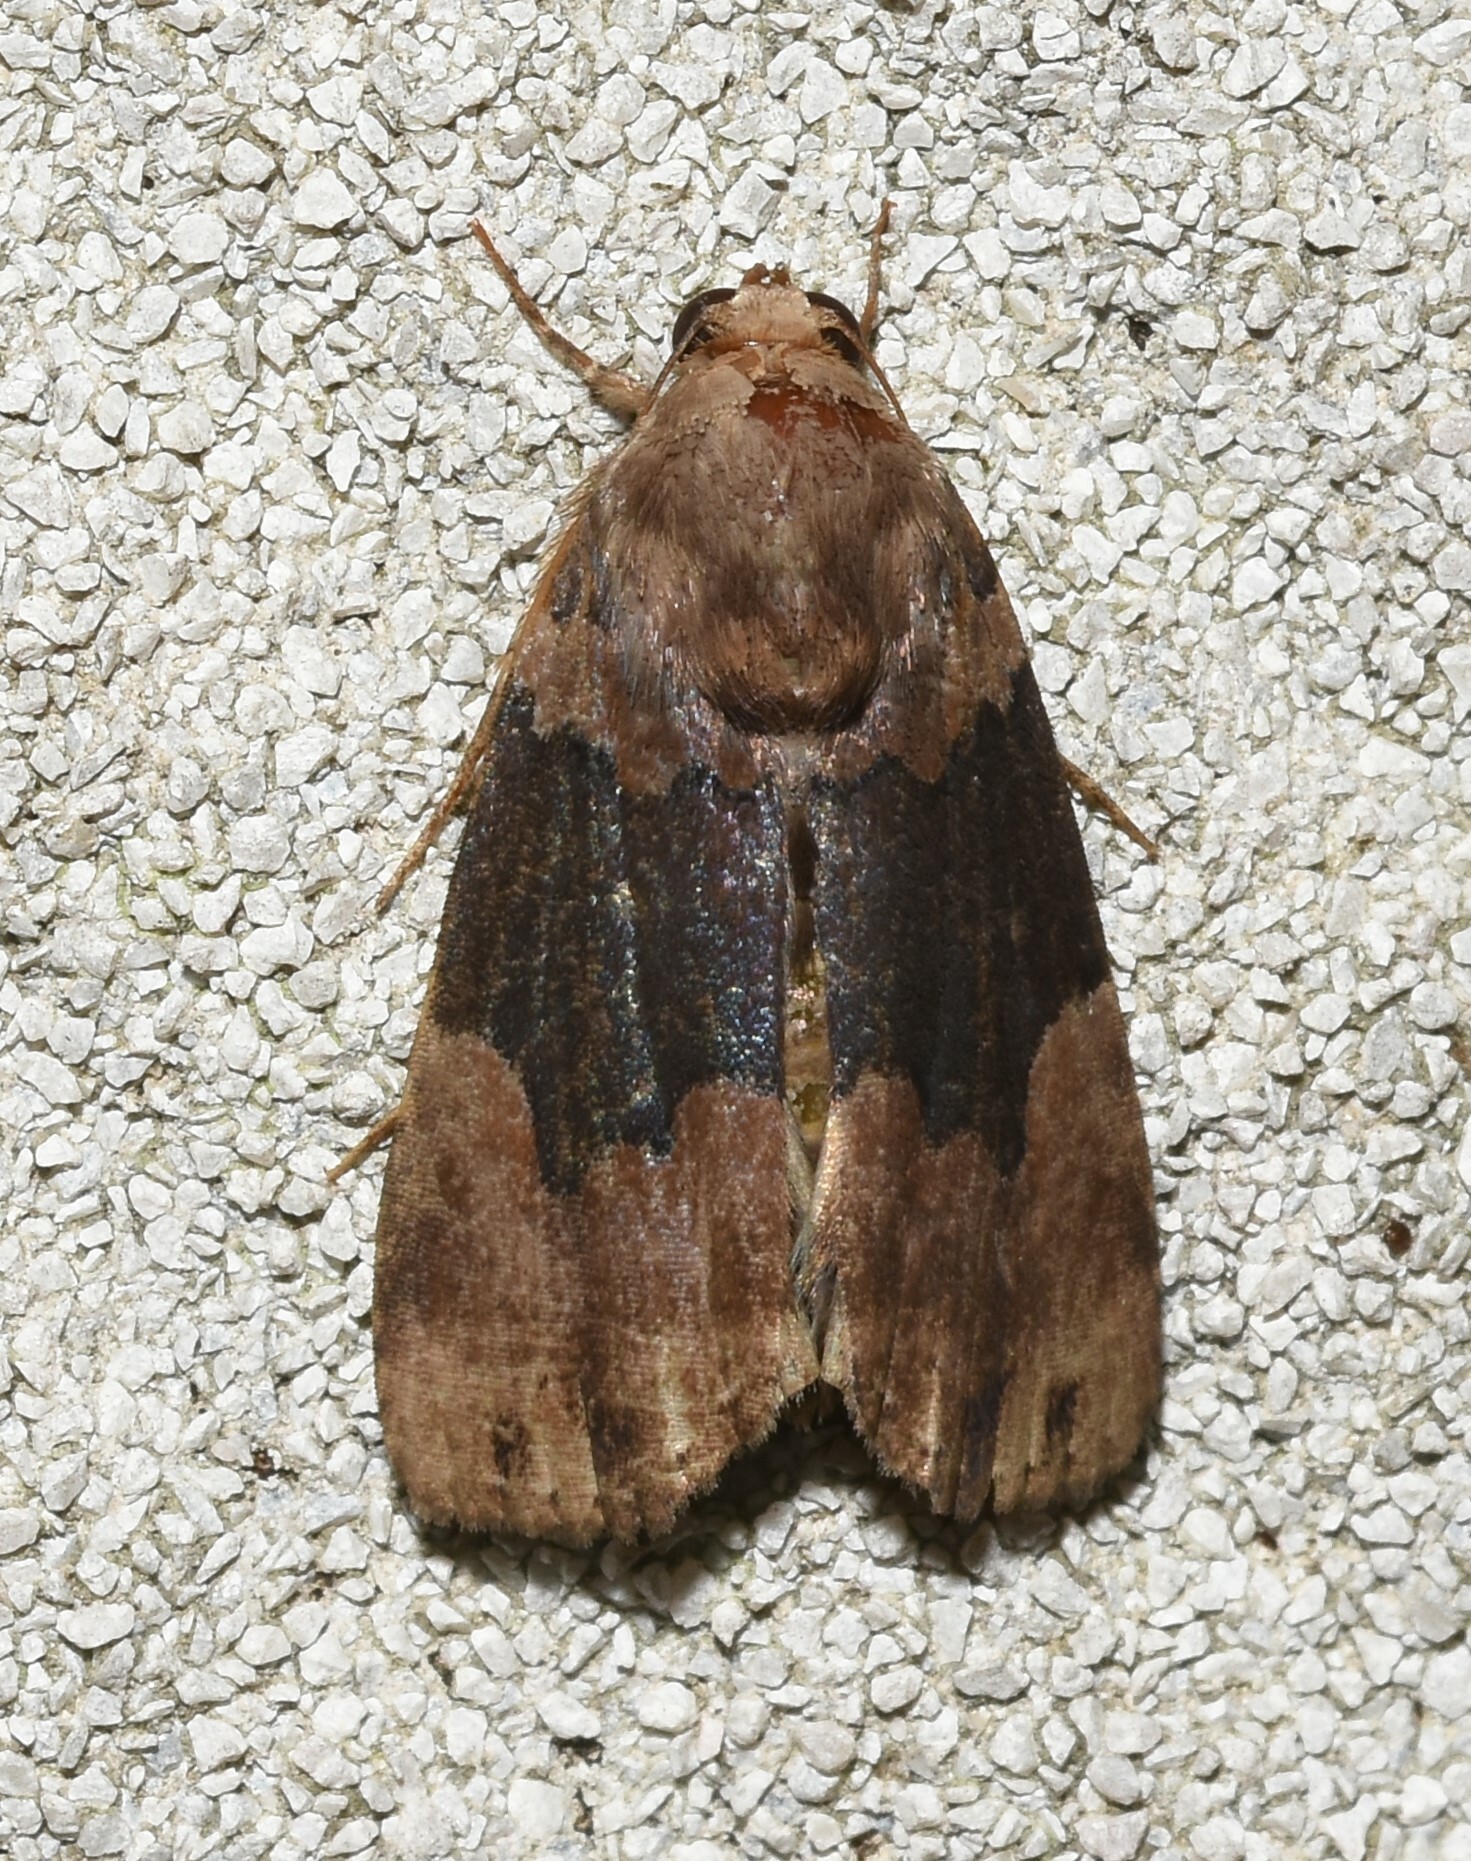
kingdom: Animalia
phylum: Arthropoda
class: Insecta
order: Lepidoptera
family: Erebidae
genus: Dinumma
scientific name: Dinumma deponens
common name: Purplish moth
